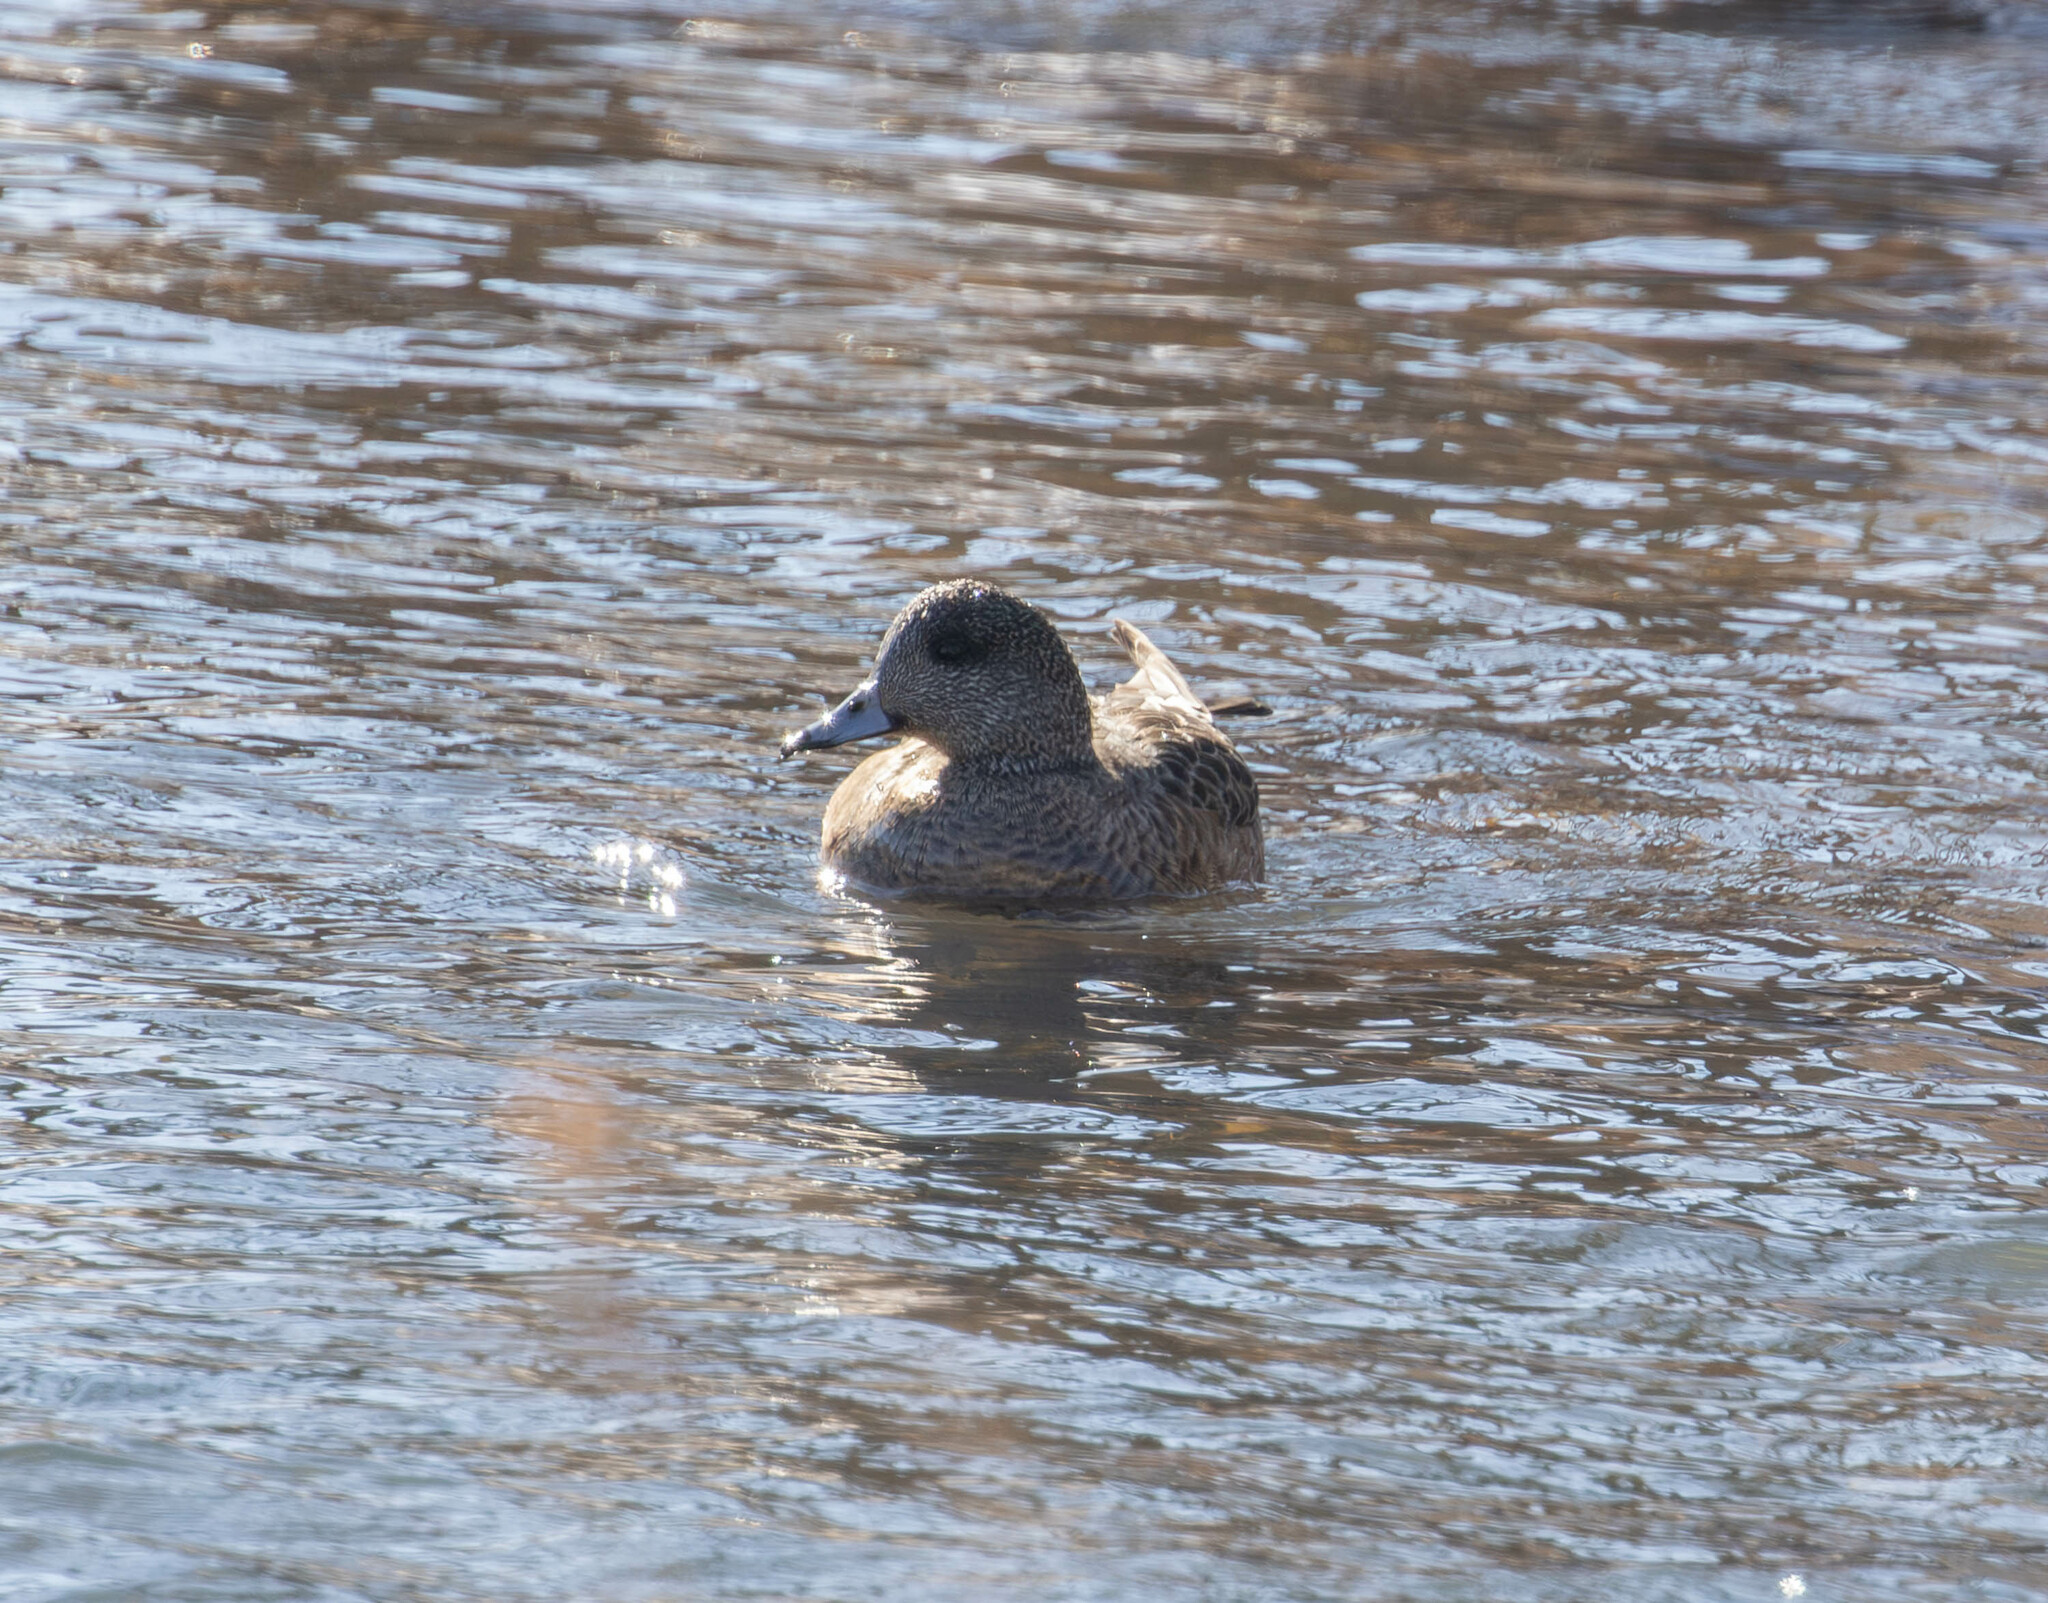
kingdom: Animalia
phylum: Chordata
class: Aves
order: Anseriformes
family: Anatidae
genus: Mareca
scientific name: Mareca americana
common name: American wigeon
